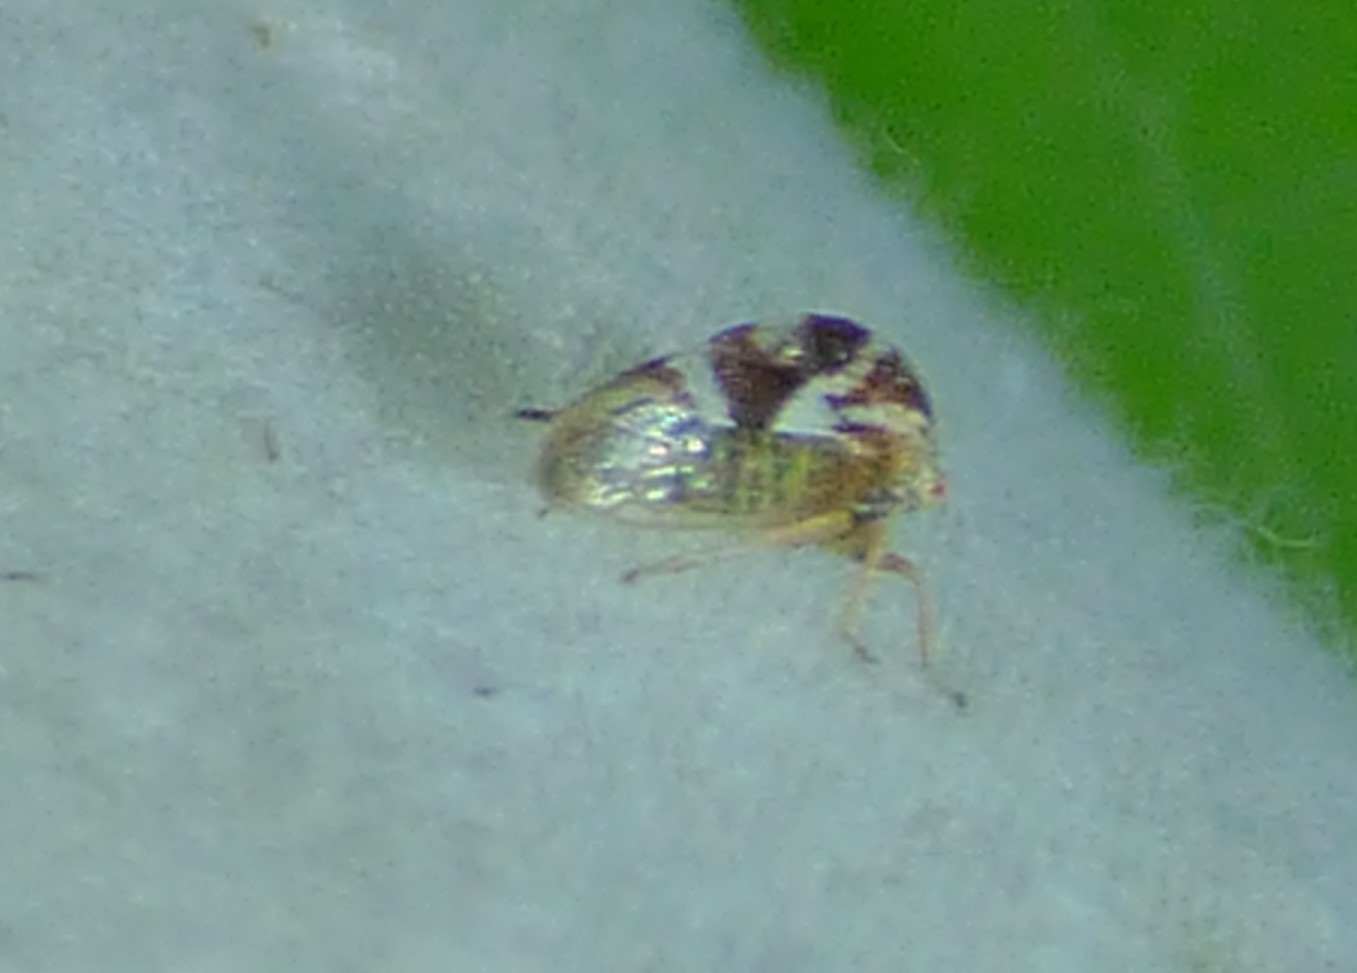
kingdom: Animalia
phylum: Arthropoda
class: Insecta
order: Hemiptera
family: Membracidae
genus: Cyrtolobus
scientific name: Cyrtolobus vau
